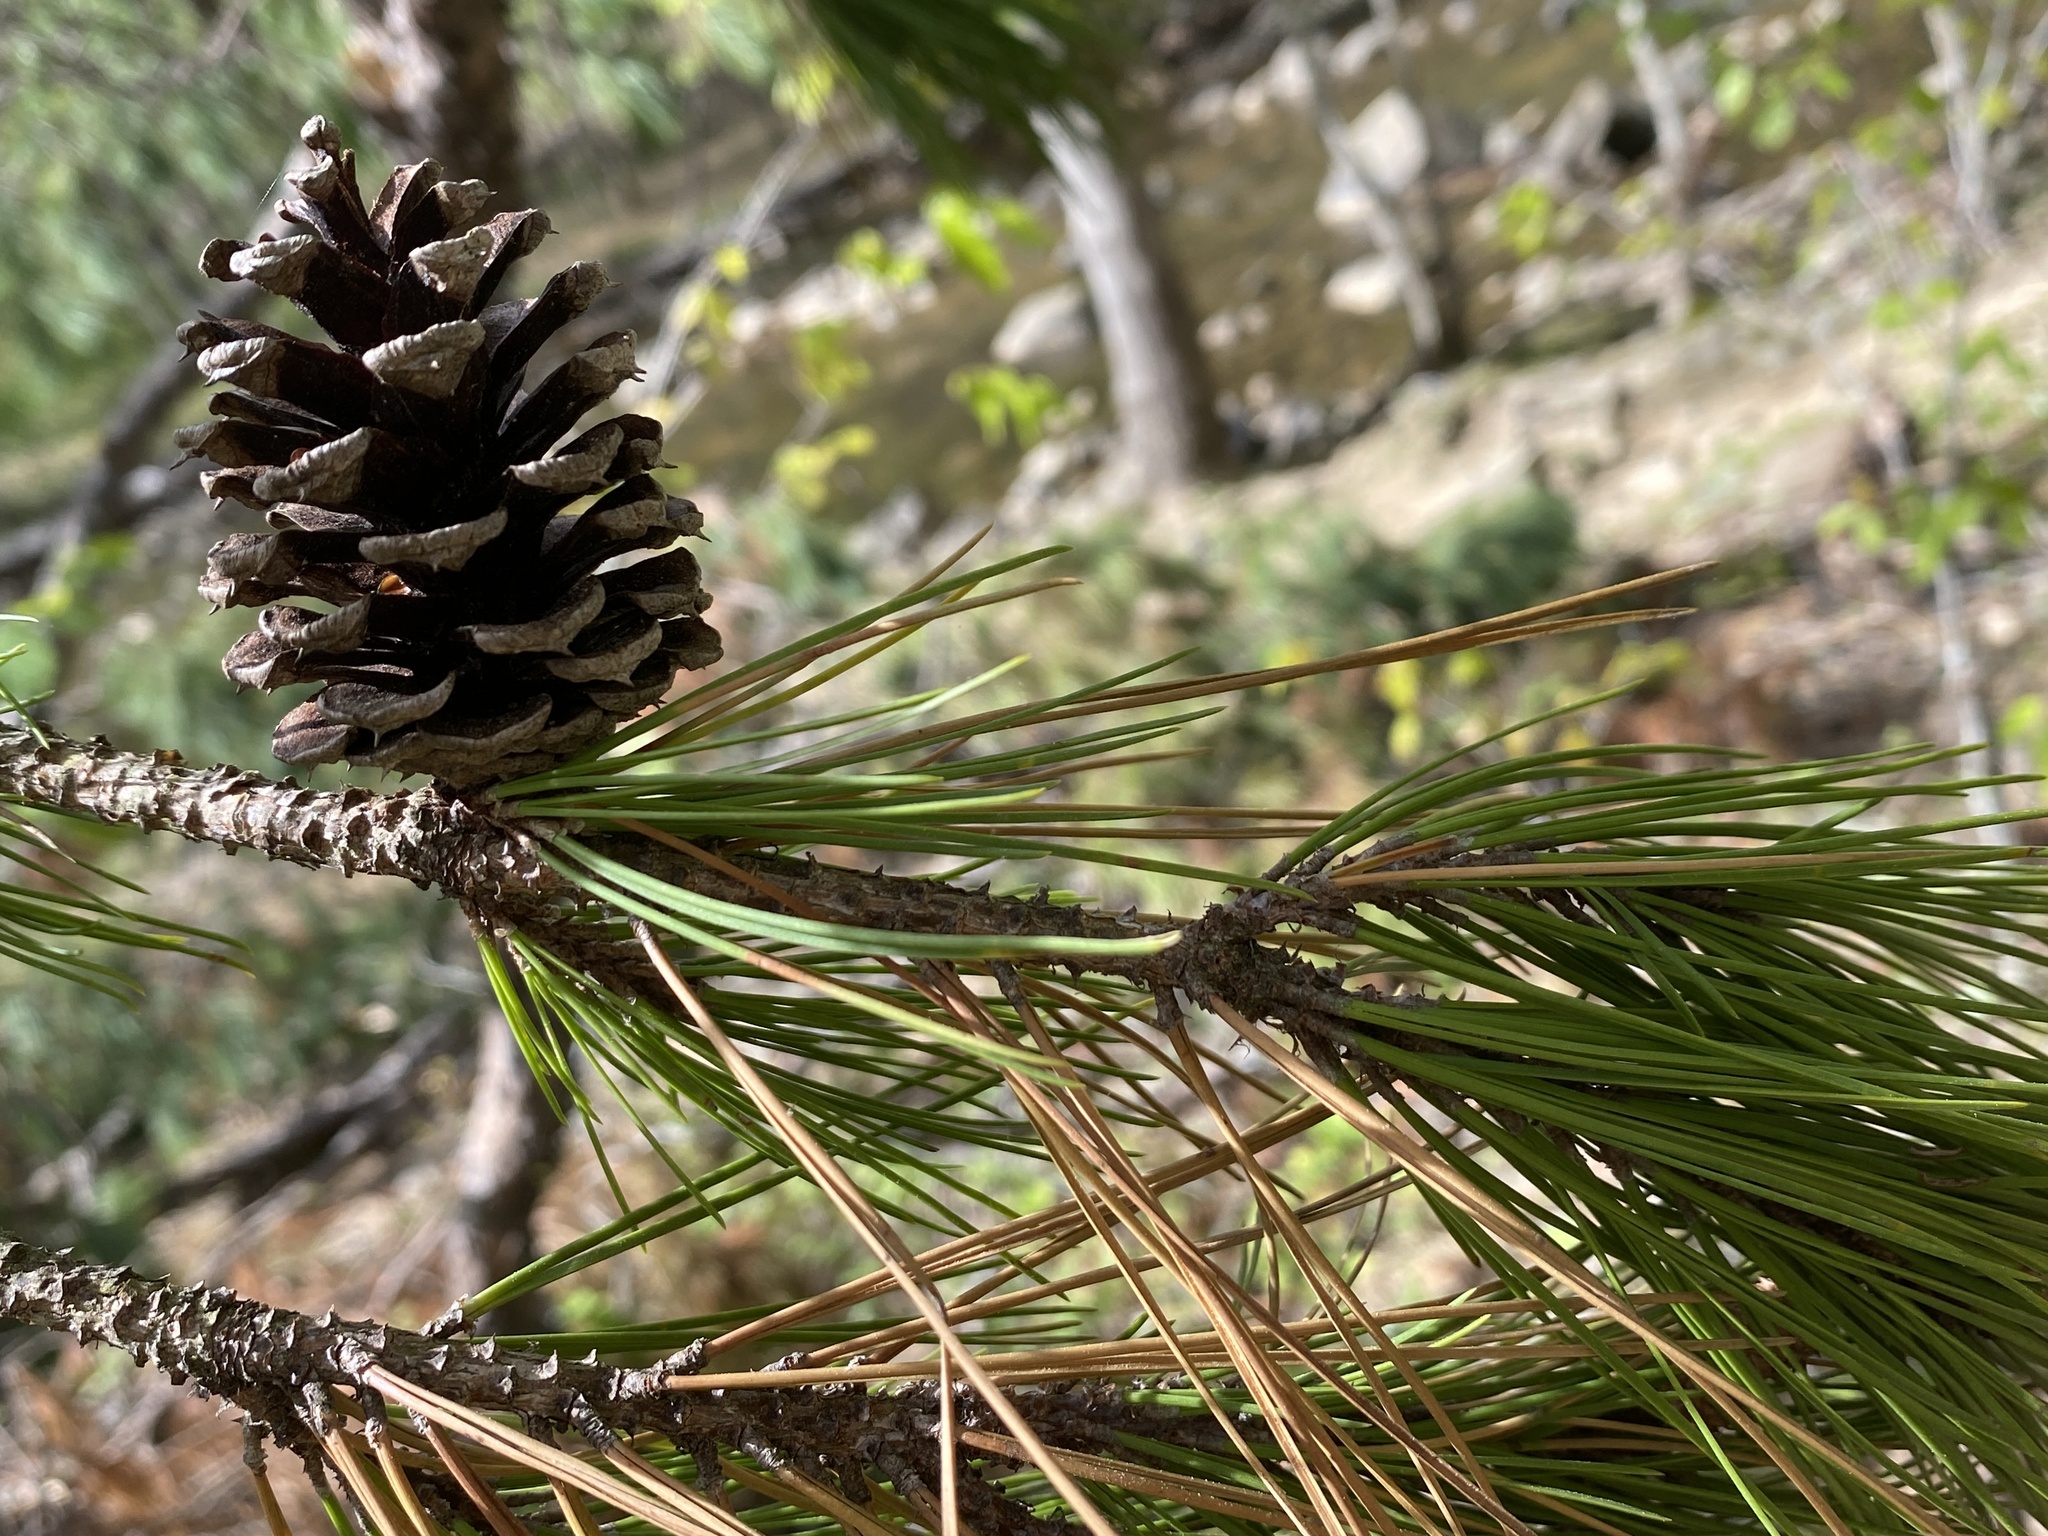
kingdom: Plantae
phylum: Tracheophyta
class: Pinopsida
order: Pinales
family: Pinaceae
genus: Pinus
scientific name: Pinus echinata
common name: Shortleaf pine
